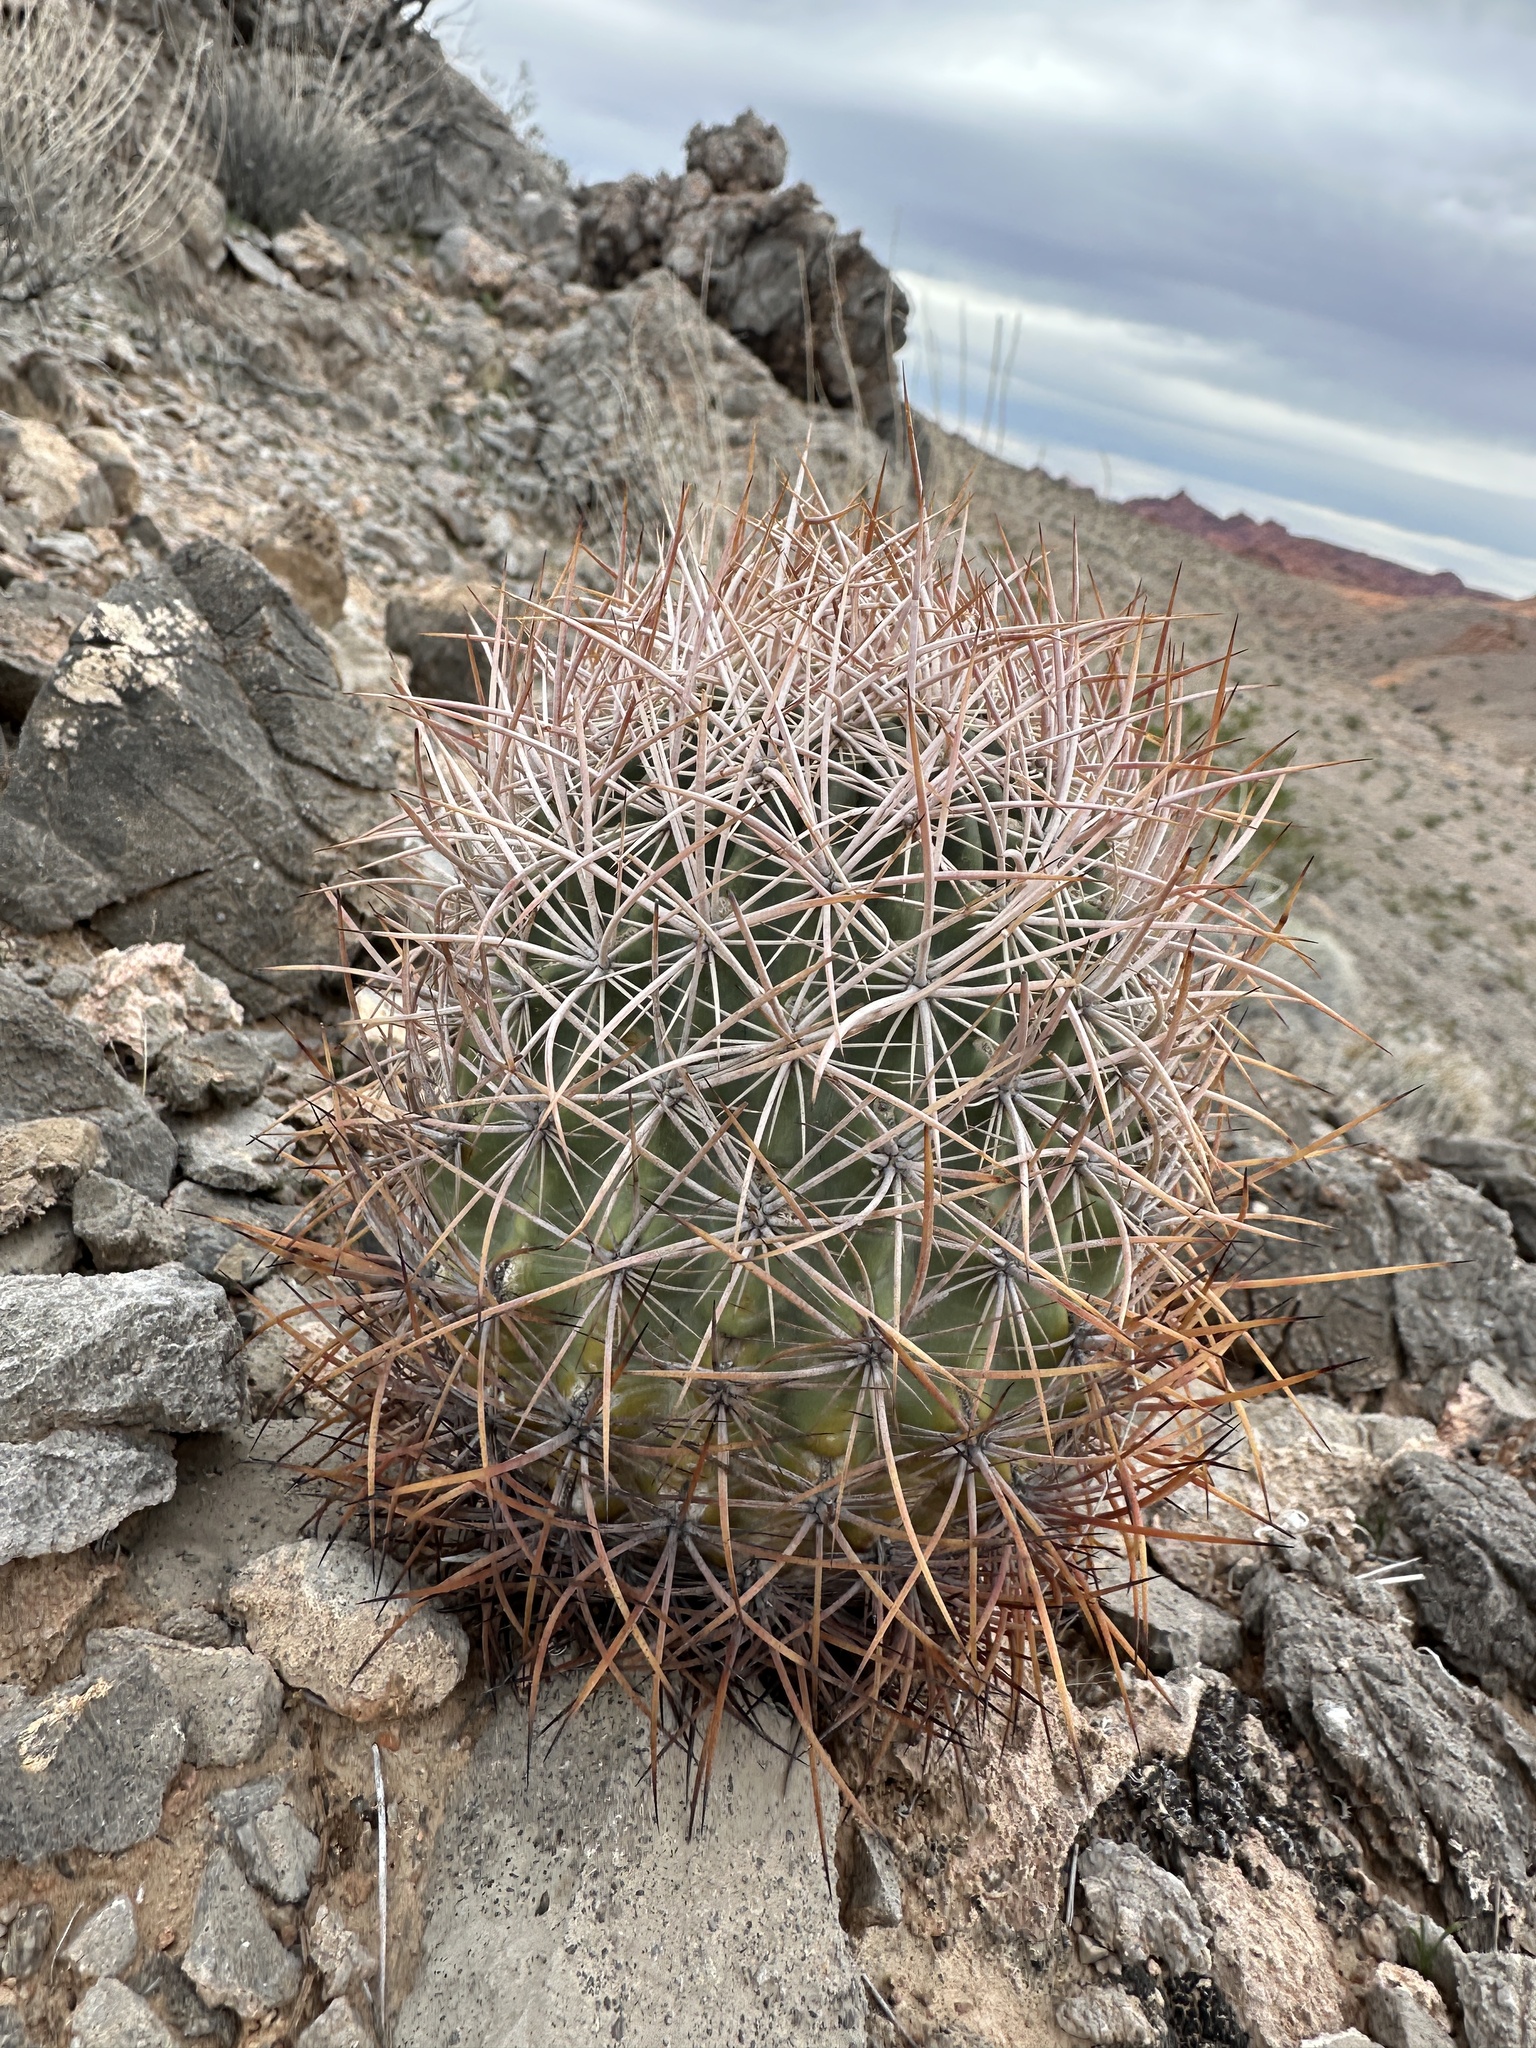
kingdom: Plantae
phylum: Tracheophyta
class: Magnoliopsida
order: Caryophyllales
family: Cactaceae
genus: Sclerocactus
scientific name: Sclerocactus johnsonii
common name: Eight-spine fishhook cactus
